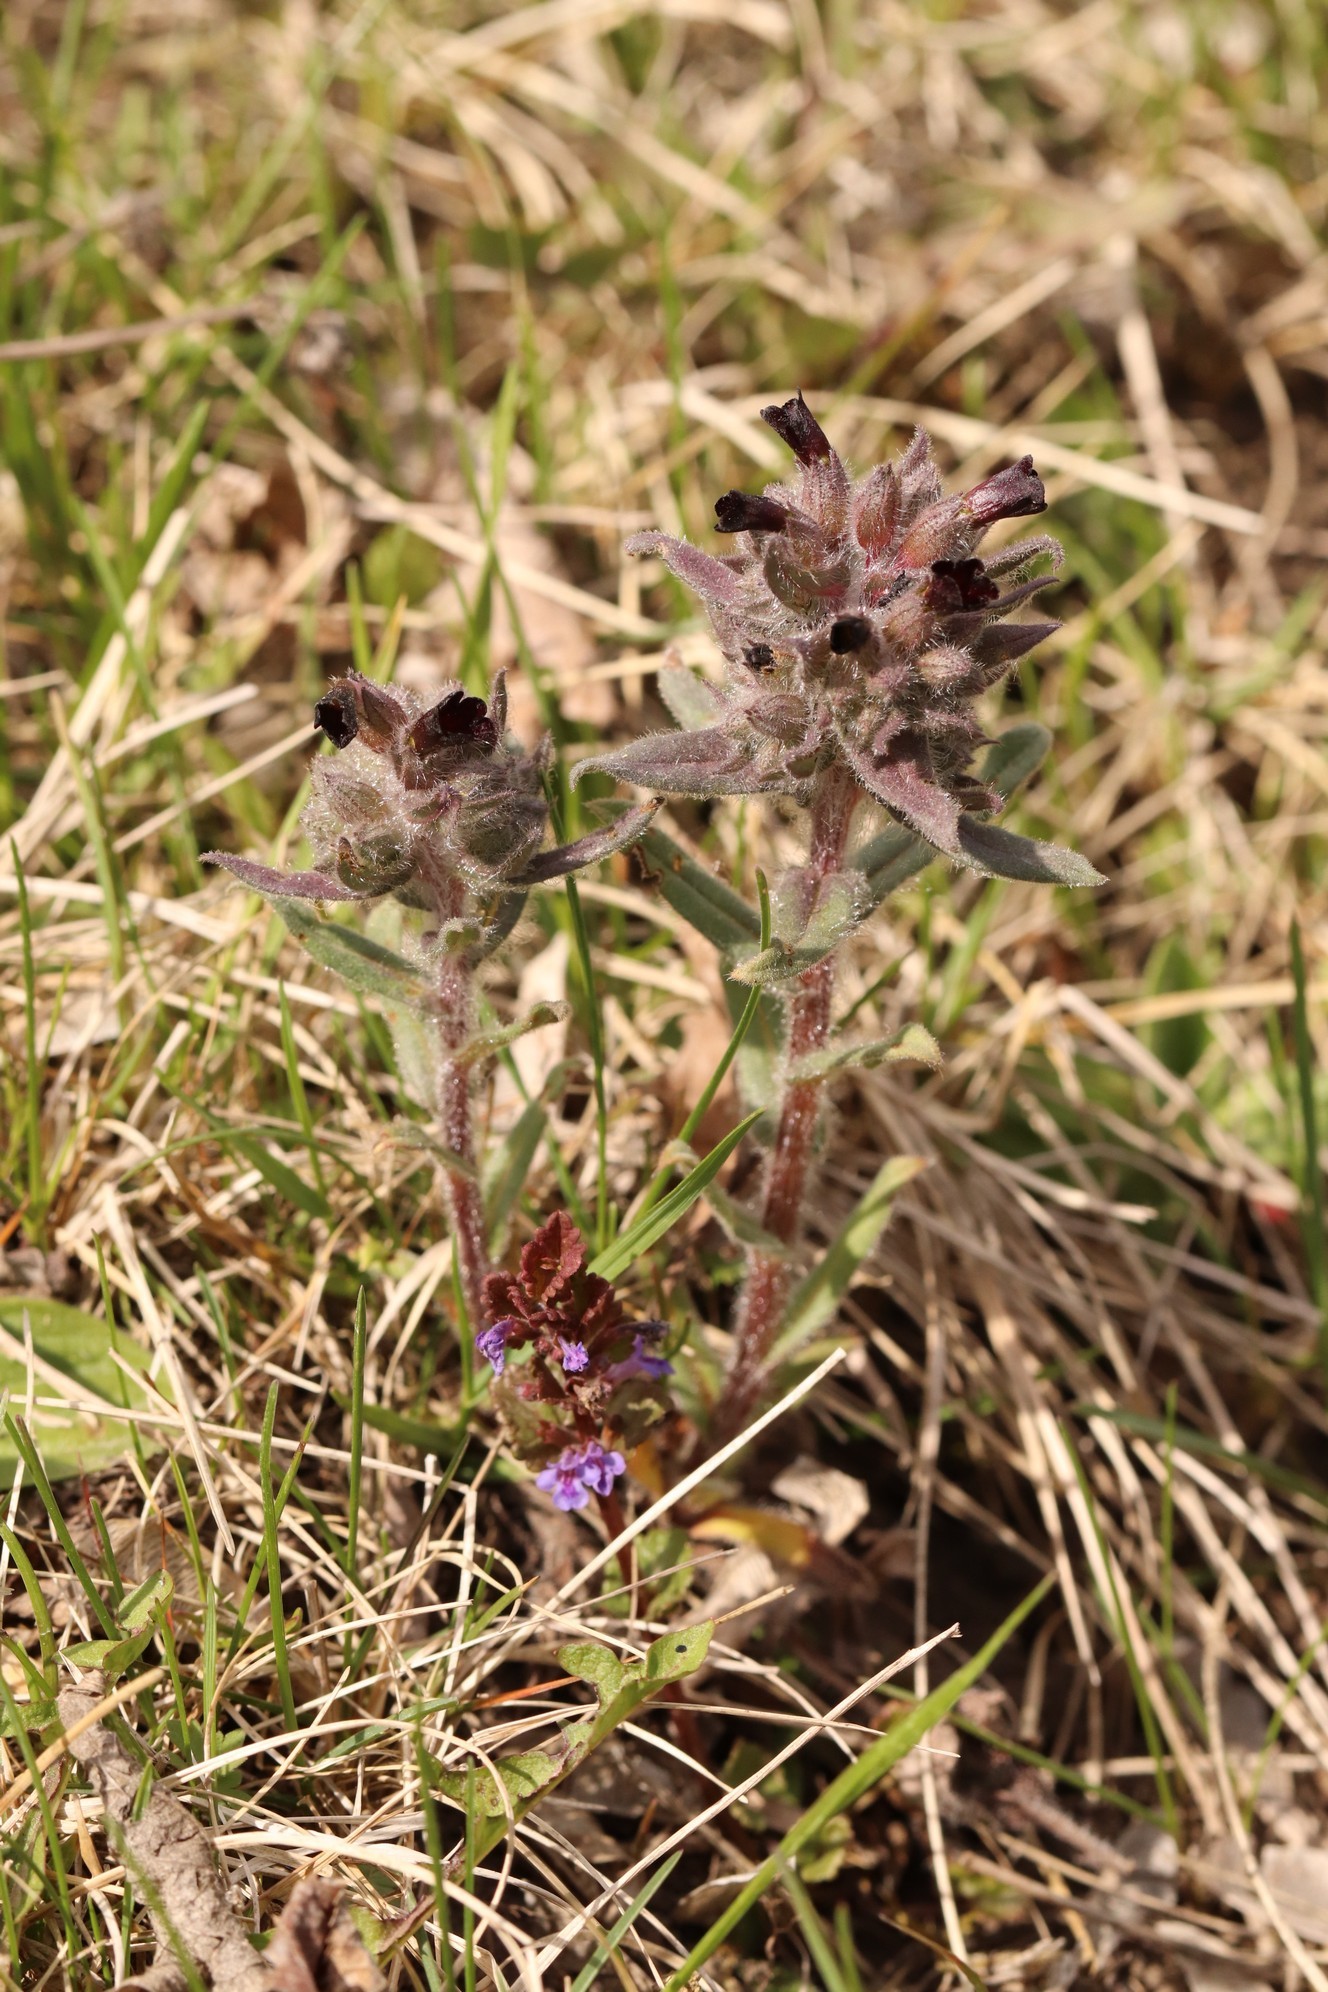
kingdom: Plantae
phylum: Tracheophyta
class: Magnoliopsida
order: Boraginales
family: Boraginaceae
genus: Nonea
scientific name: Nonea pulla
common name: Brown nonea
